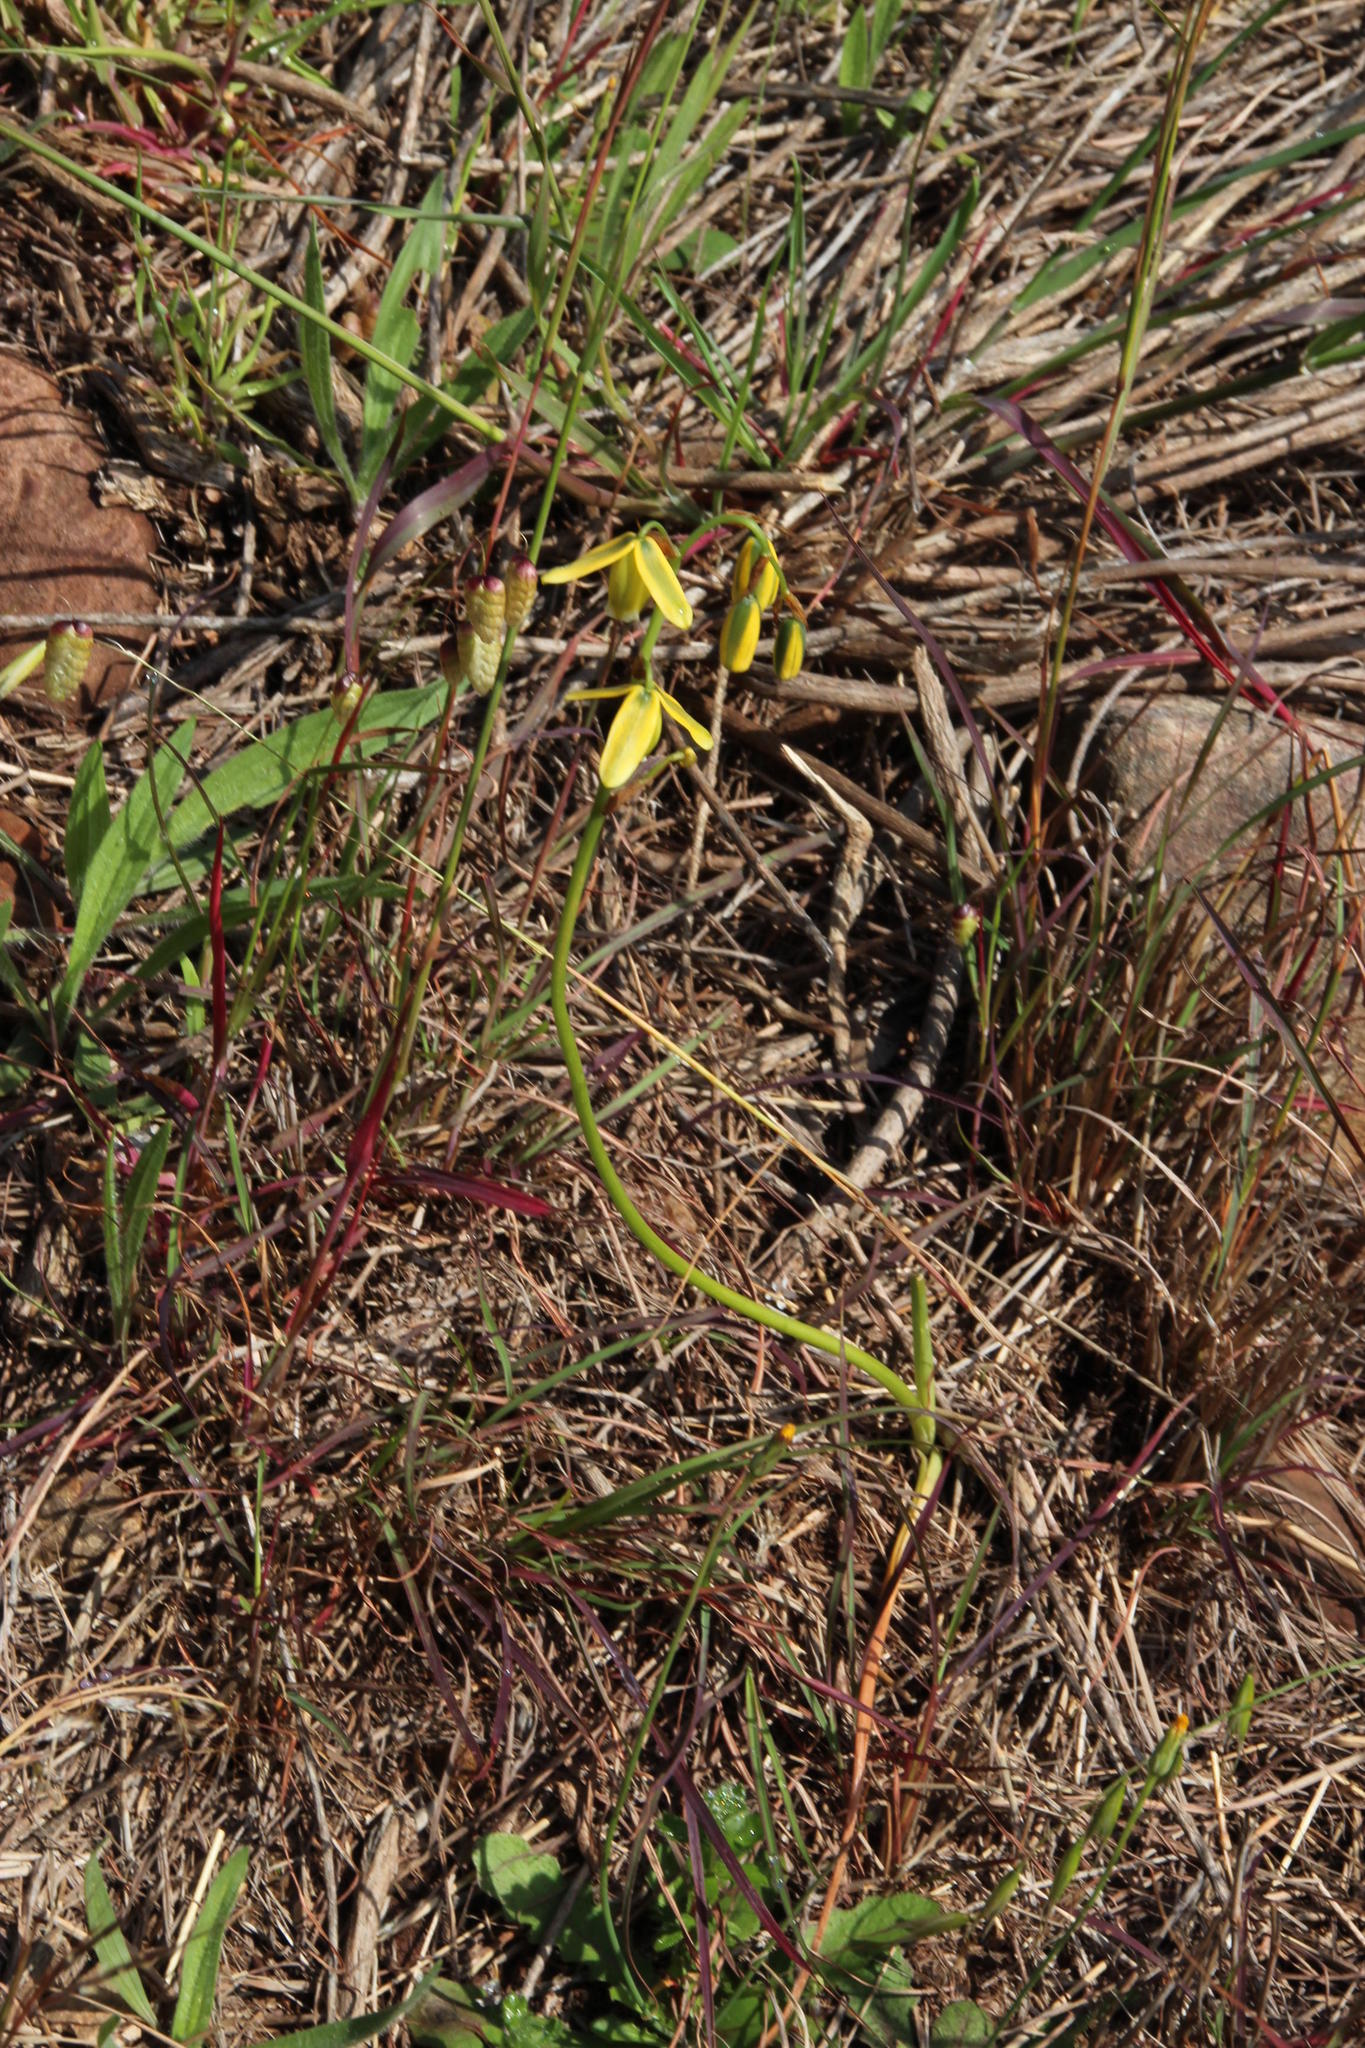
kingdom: Plantae
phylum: Tracheophyta
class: Liliopsida
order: Asparagales
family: Asparagaceae
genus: Albuca
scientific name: Albuca flaccida
